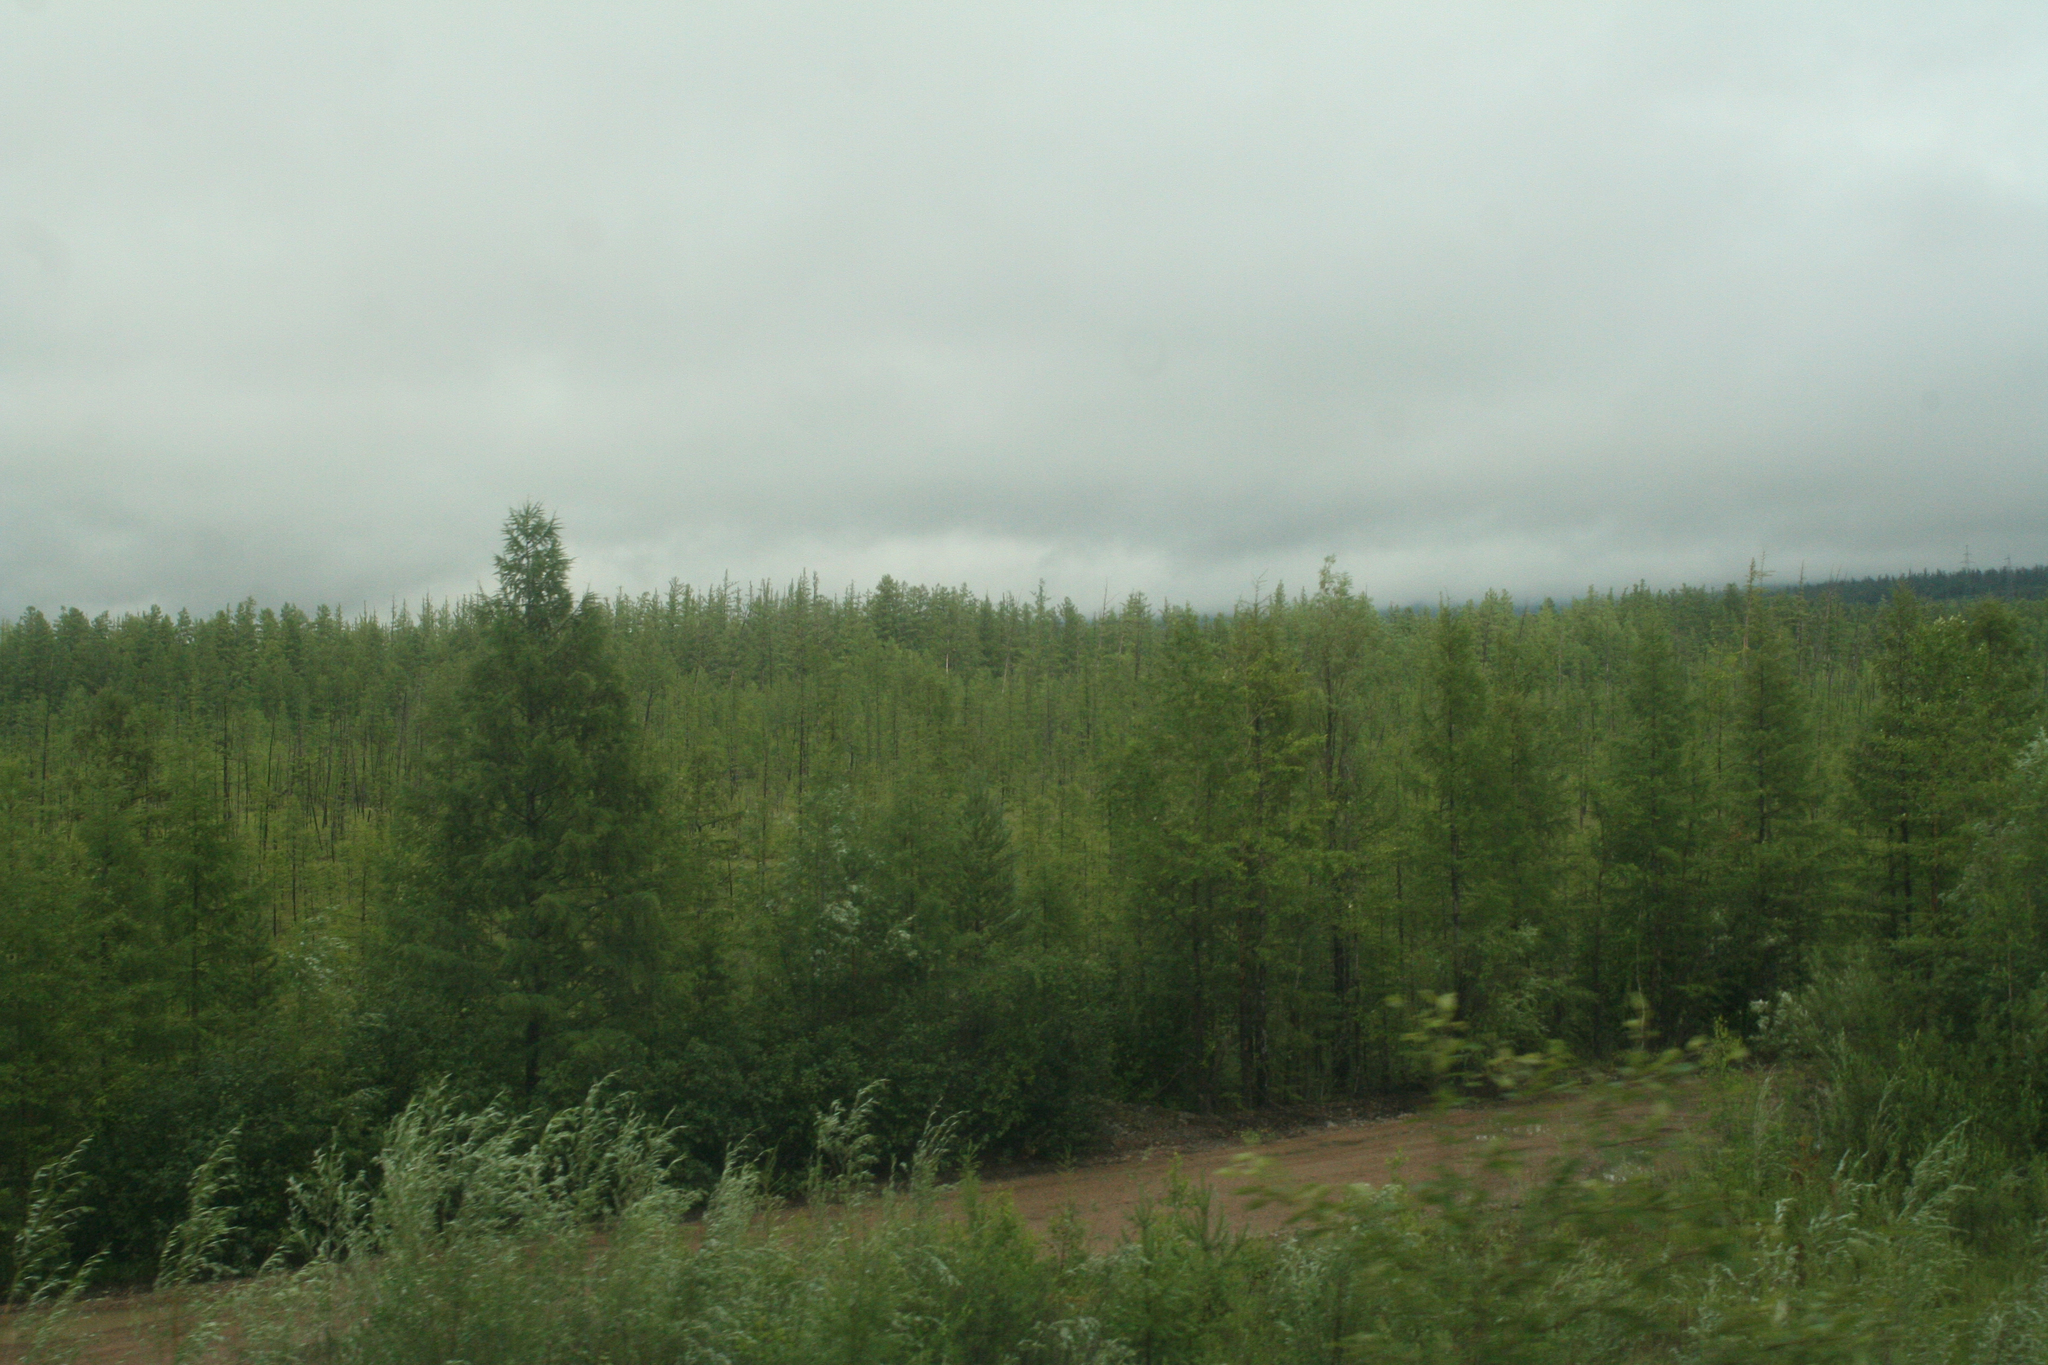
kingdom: Plantae
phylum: Tracheophyta
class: Pinopsida
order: Pinales
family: Pinaceae
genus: Larix
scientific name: Larix gmelinii
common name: Dahurian larch
